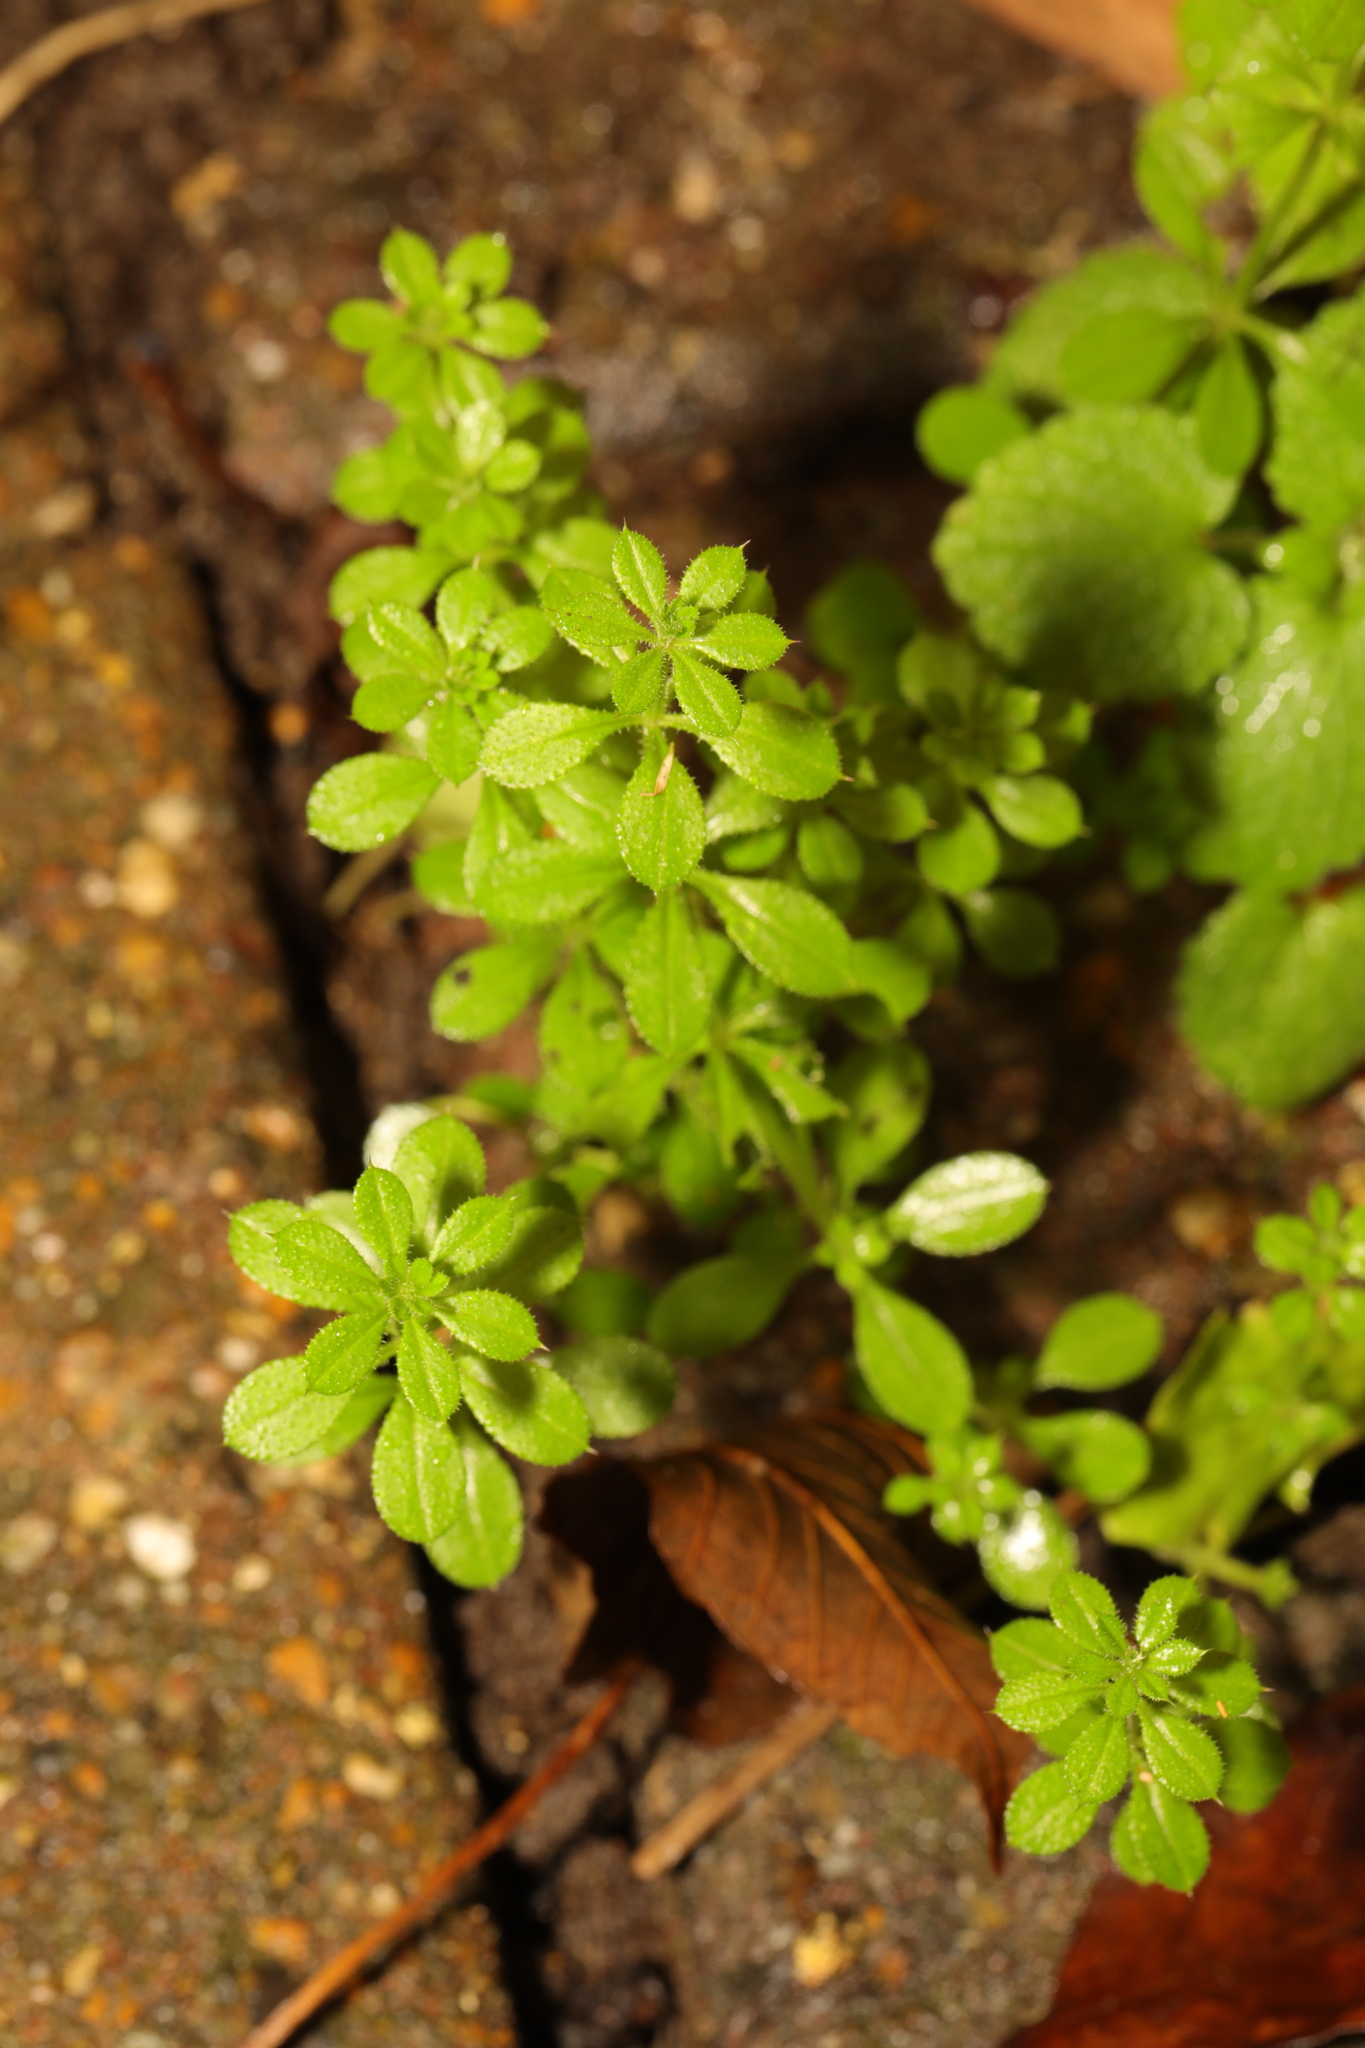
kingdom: Plantae
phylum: Tracheophyta
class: Magnoliopsida
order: Gentianales
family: Rubiaceae
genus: Galium
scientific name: Galium aparine
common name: Cleavers
